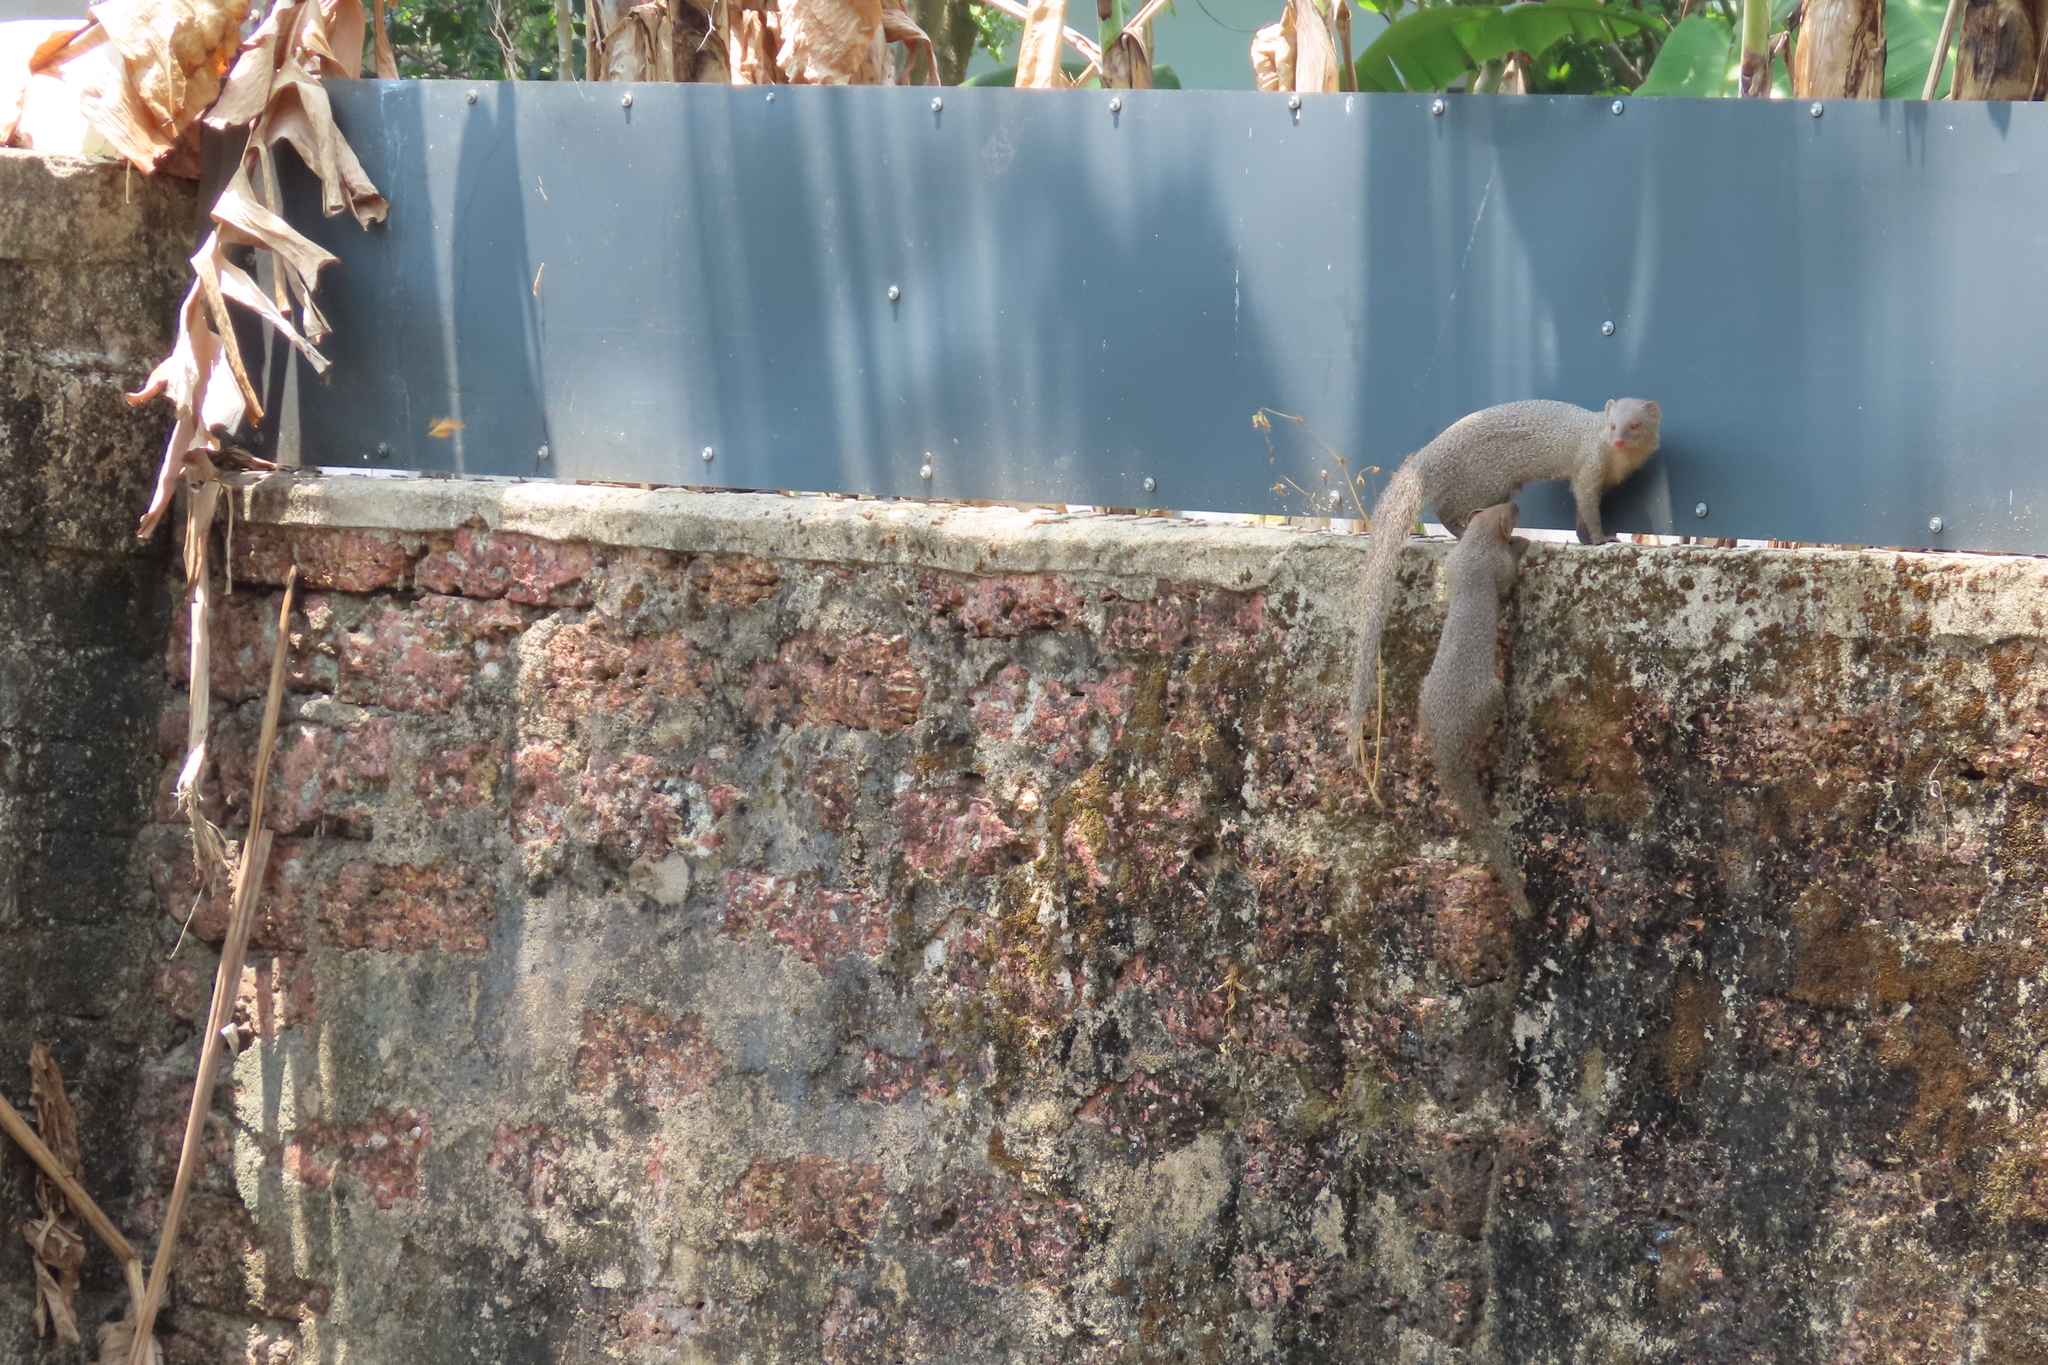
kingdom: Animalia
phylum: Chordata
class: Mammalia
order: Carnivora
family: Herpestidae
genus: Herpestes
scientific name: Herpestes edwardsi
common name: Indian gray mongoose
